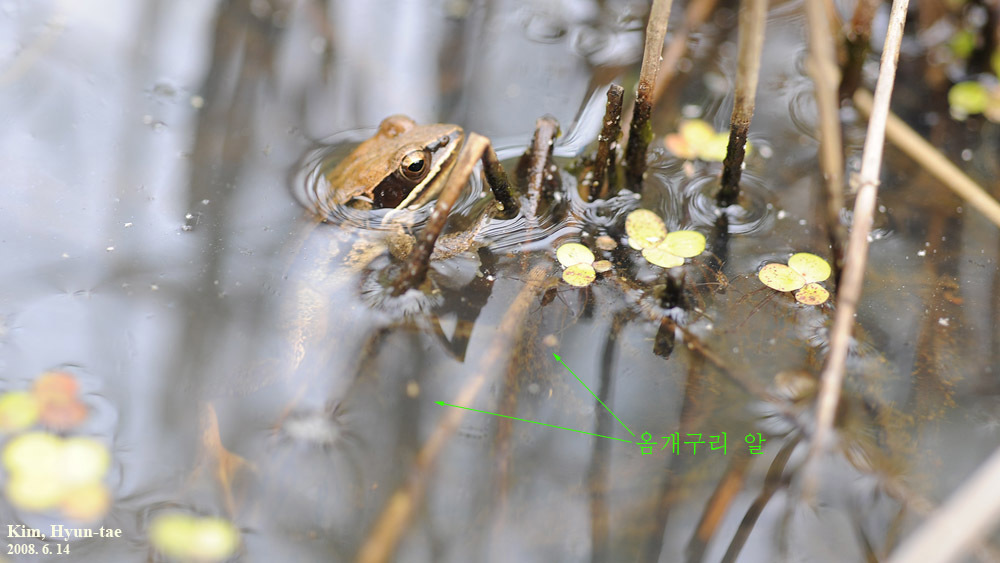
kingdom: Animalia
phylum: Chordata
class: Amphibia
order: Anura
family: Ranidae
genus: Rana
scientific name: Rana coreana
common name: Korean brown frog
